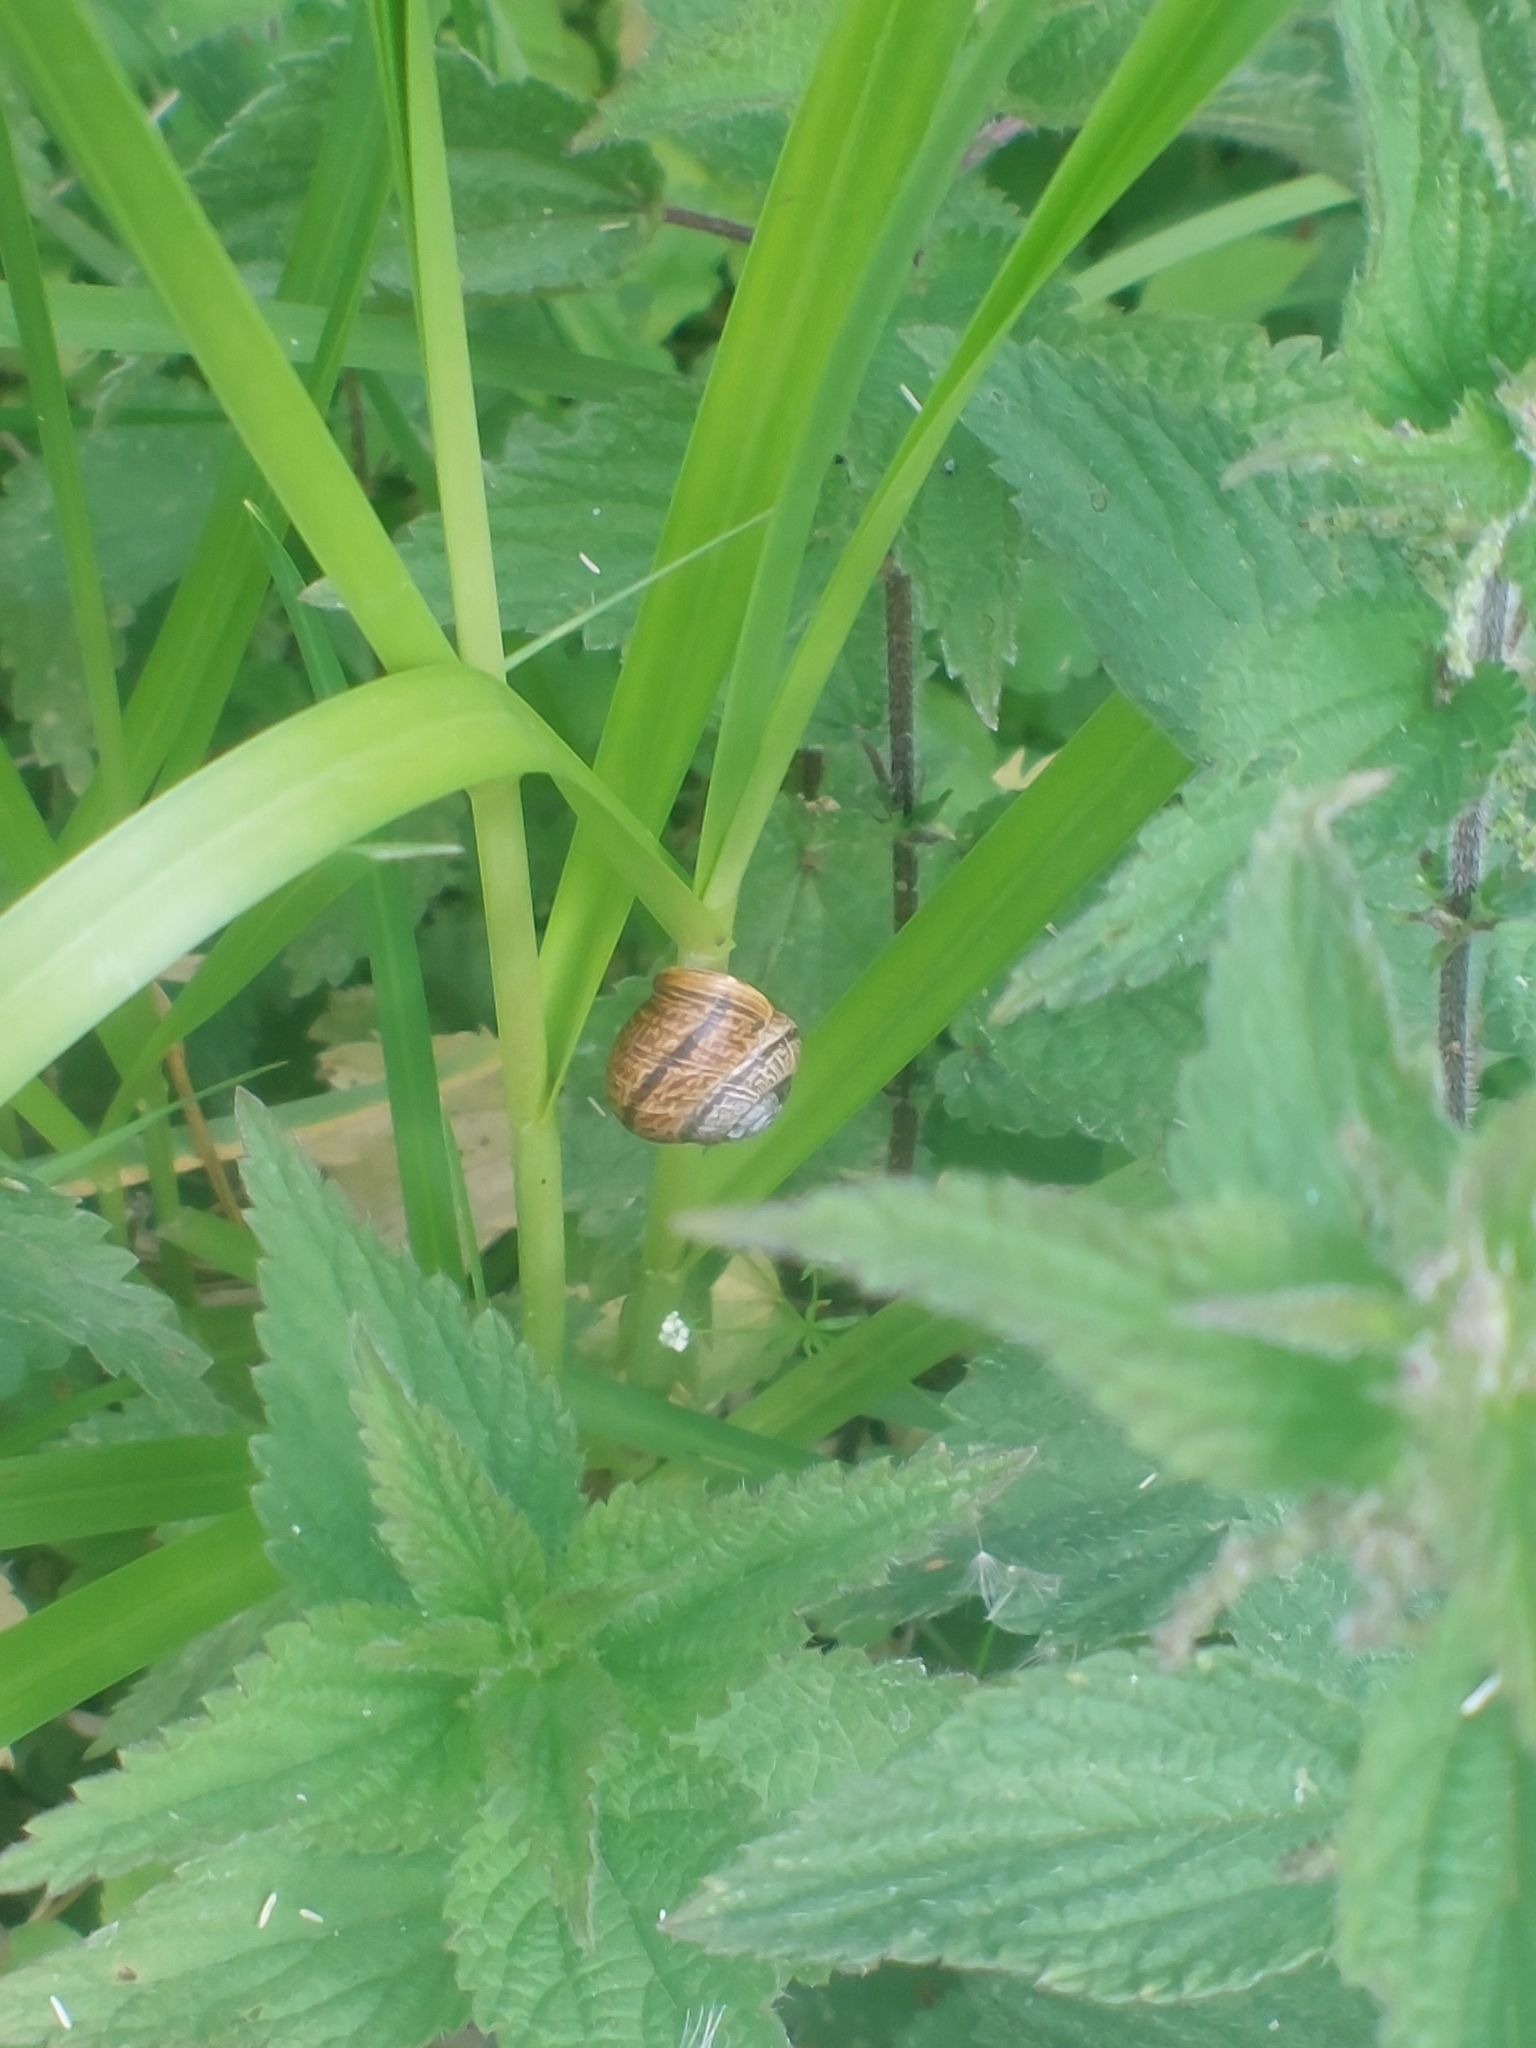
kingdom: Animalia
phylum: Mollusca
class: Gastropoda
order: Stylommatophora
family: Helicidae
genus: Arianta
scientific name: Arianta arbustorum
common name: Copse snail
